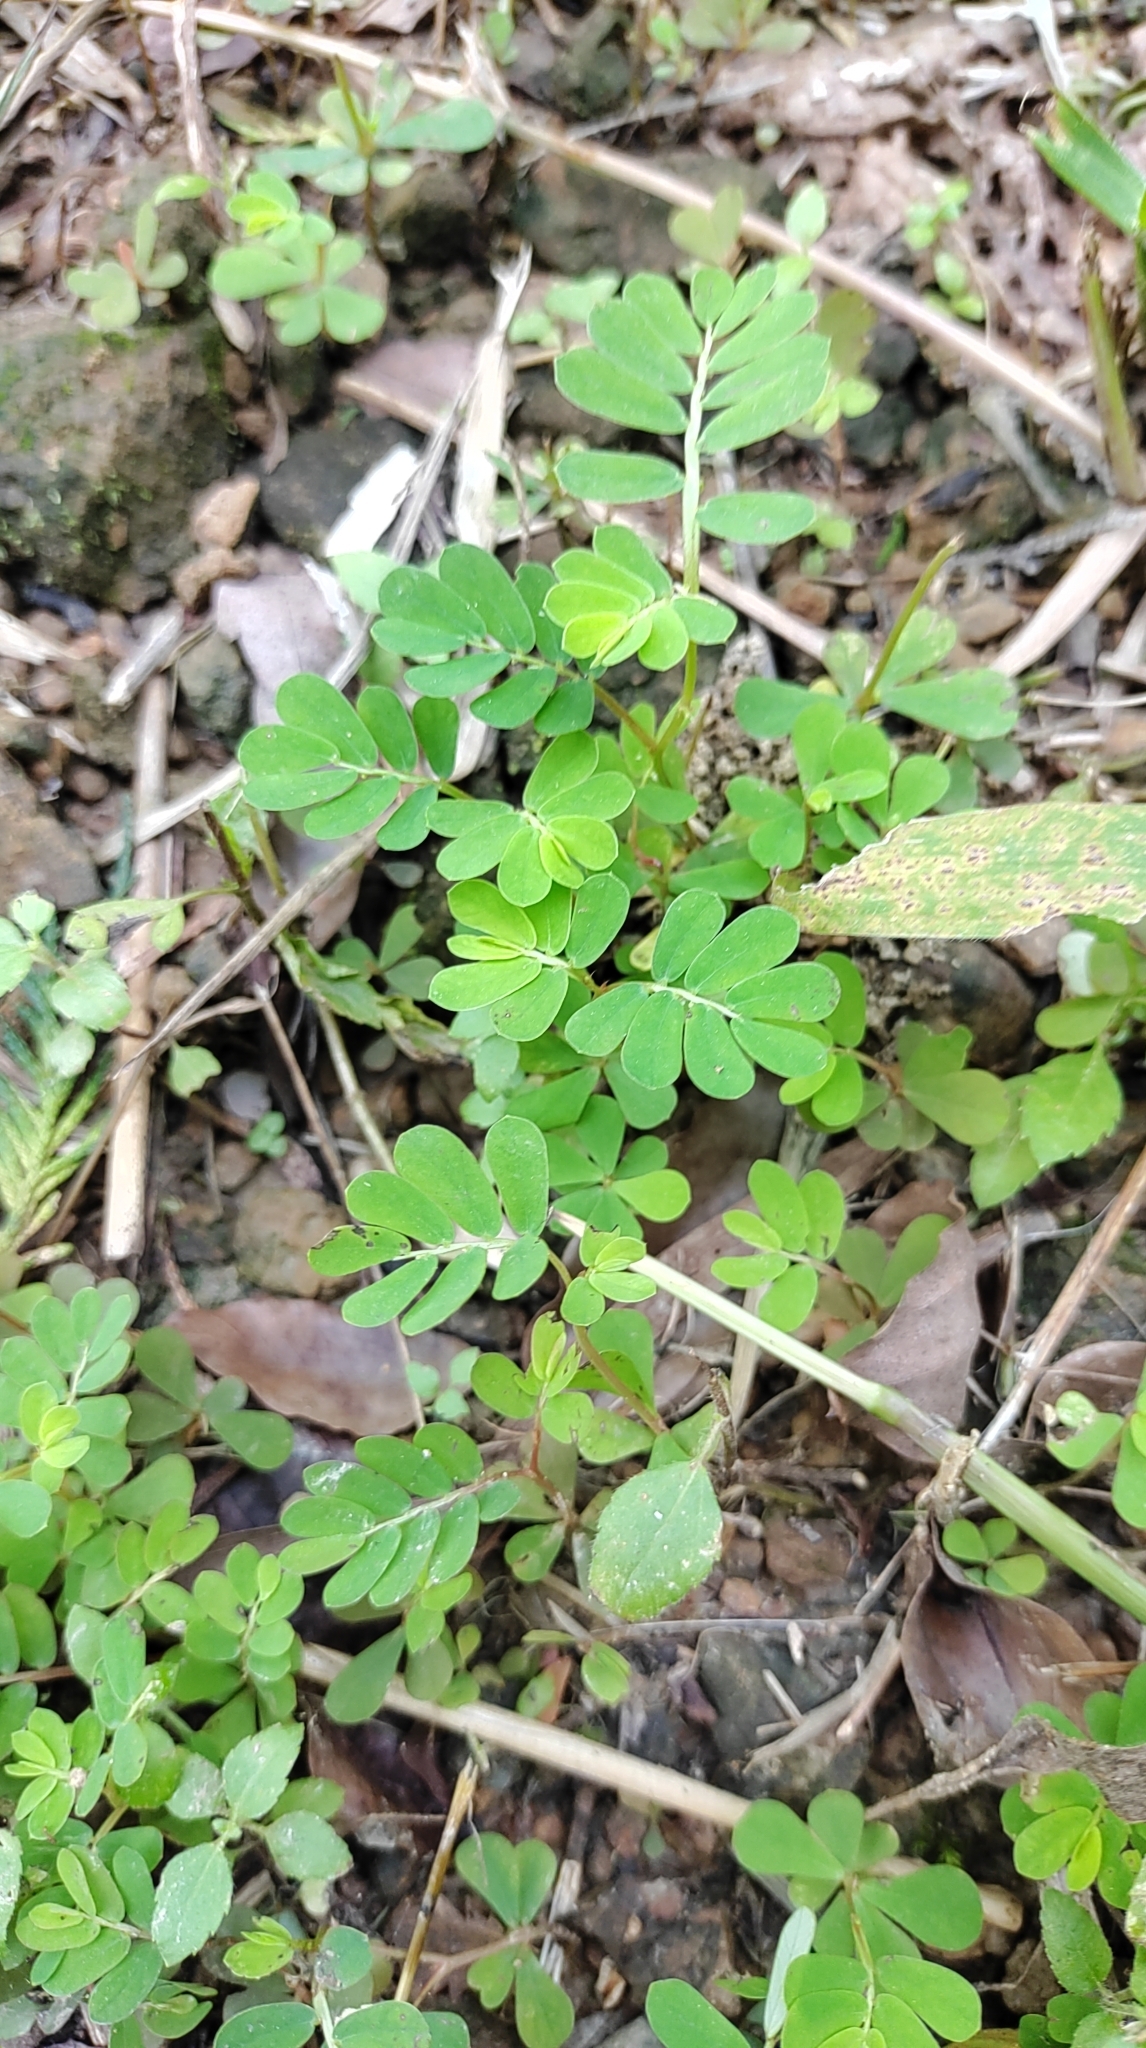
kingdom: Plantae
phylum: Tracheophyta
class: Magnoliopsida
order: Malpighiales
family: Phyllanthaceae
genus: Phyllanthus
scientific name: Phyllanthus urinaria
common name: Chamber bitter
